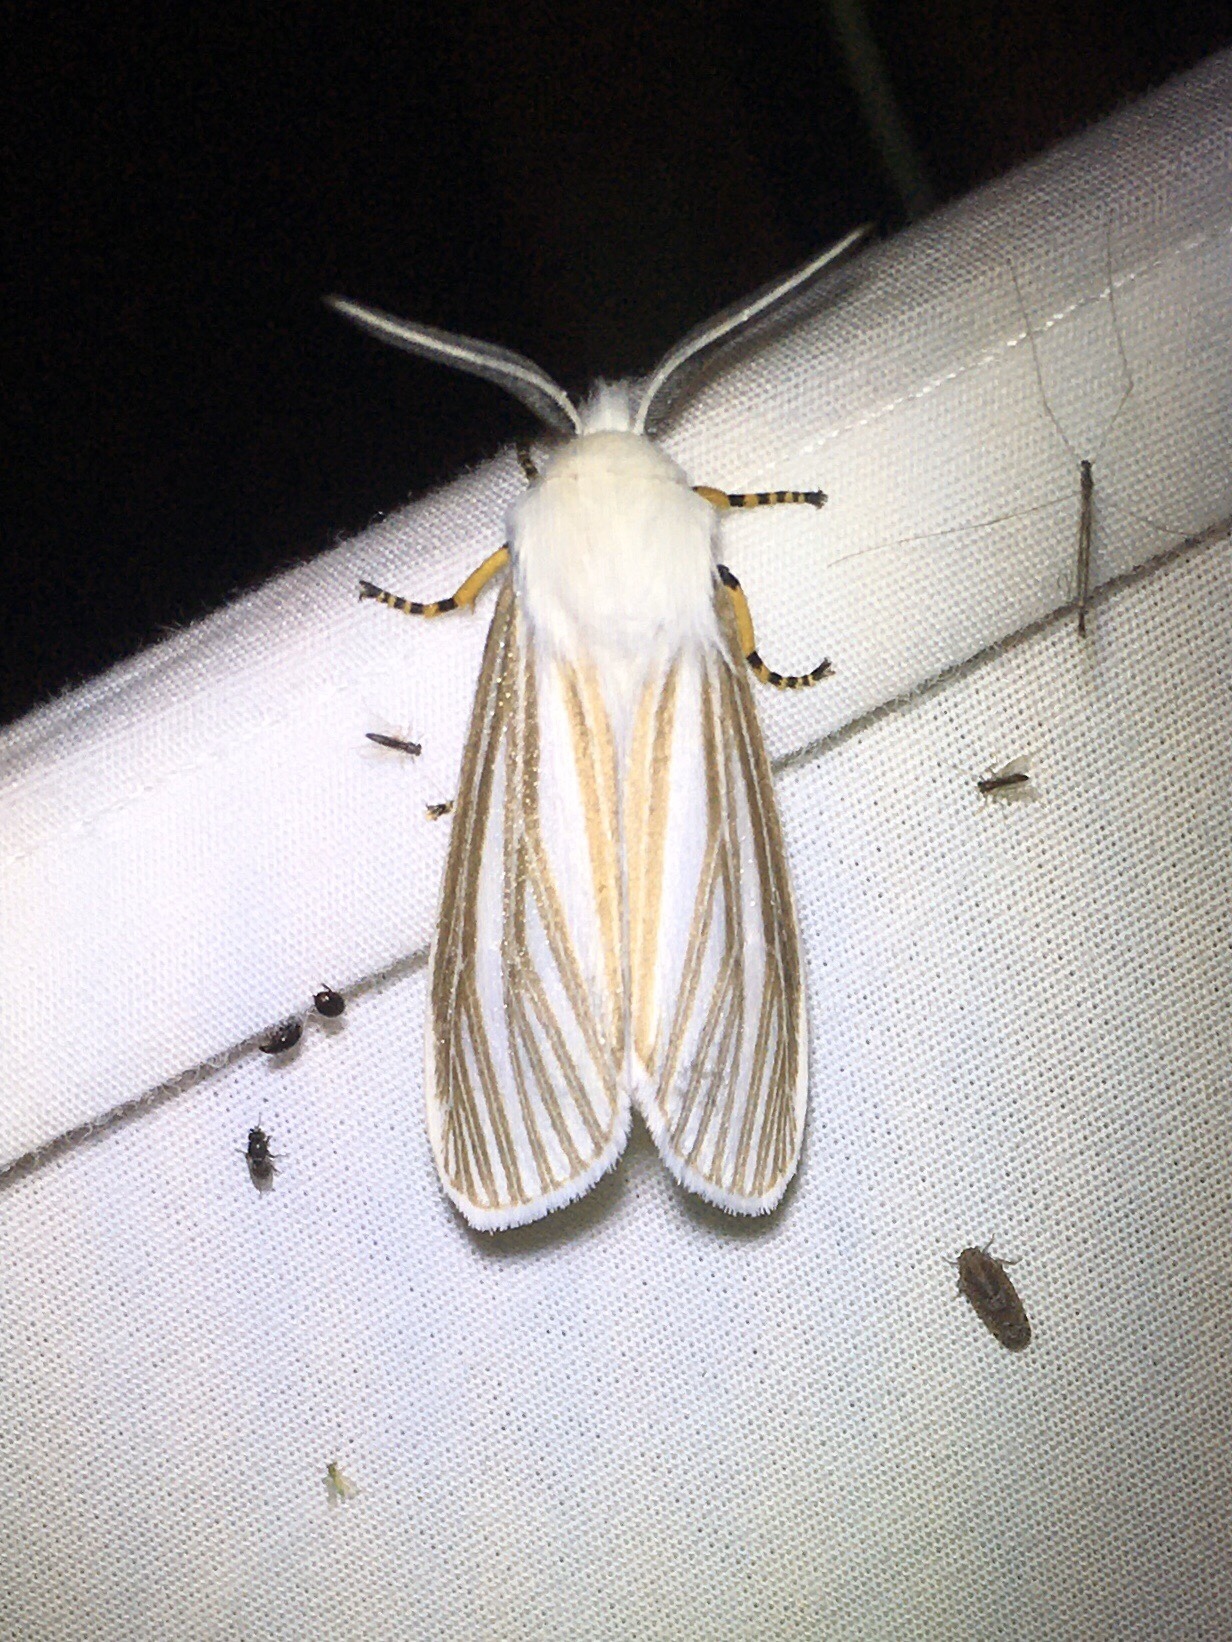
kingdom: Animalia
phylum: Arthropoda
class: Insecta
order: Lepidoptera
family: Erebidae
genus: Seirarctia
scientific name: Seirarctia echo
